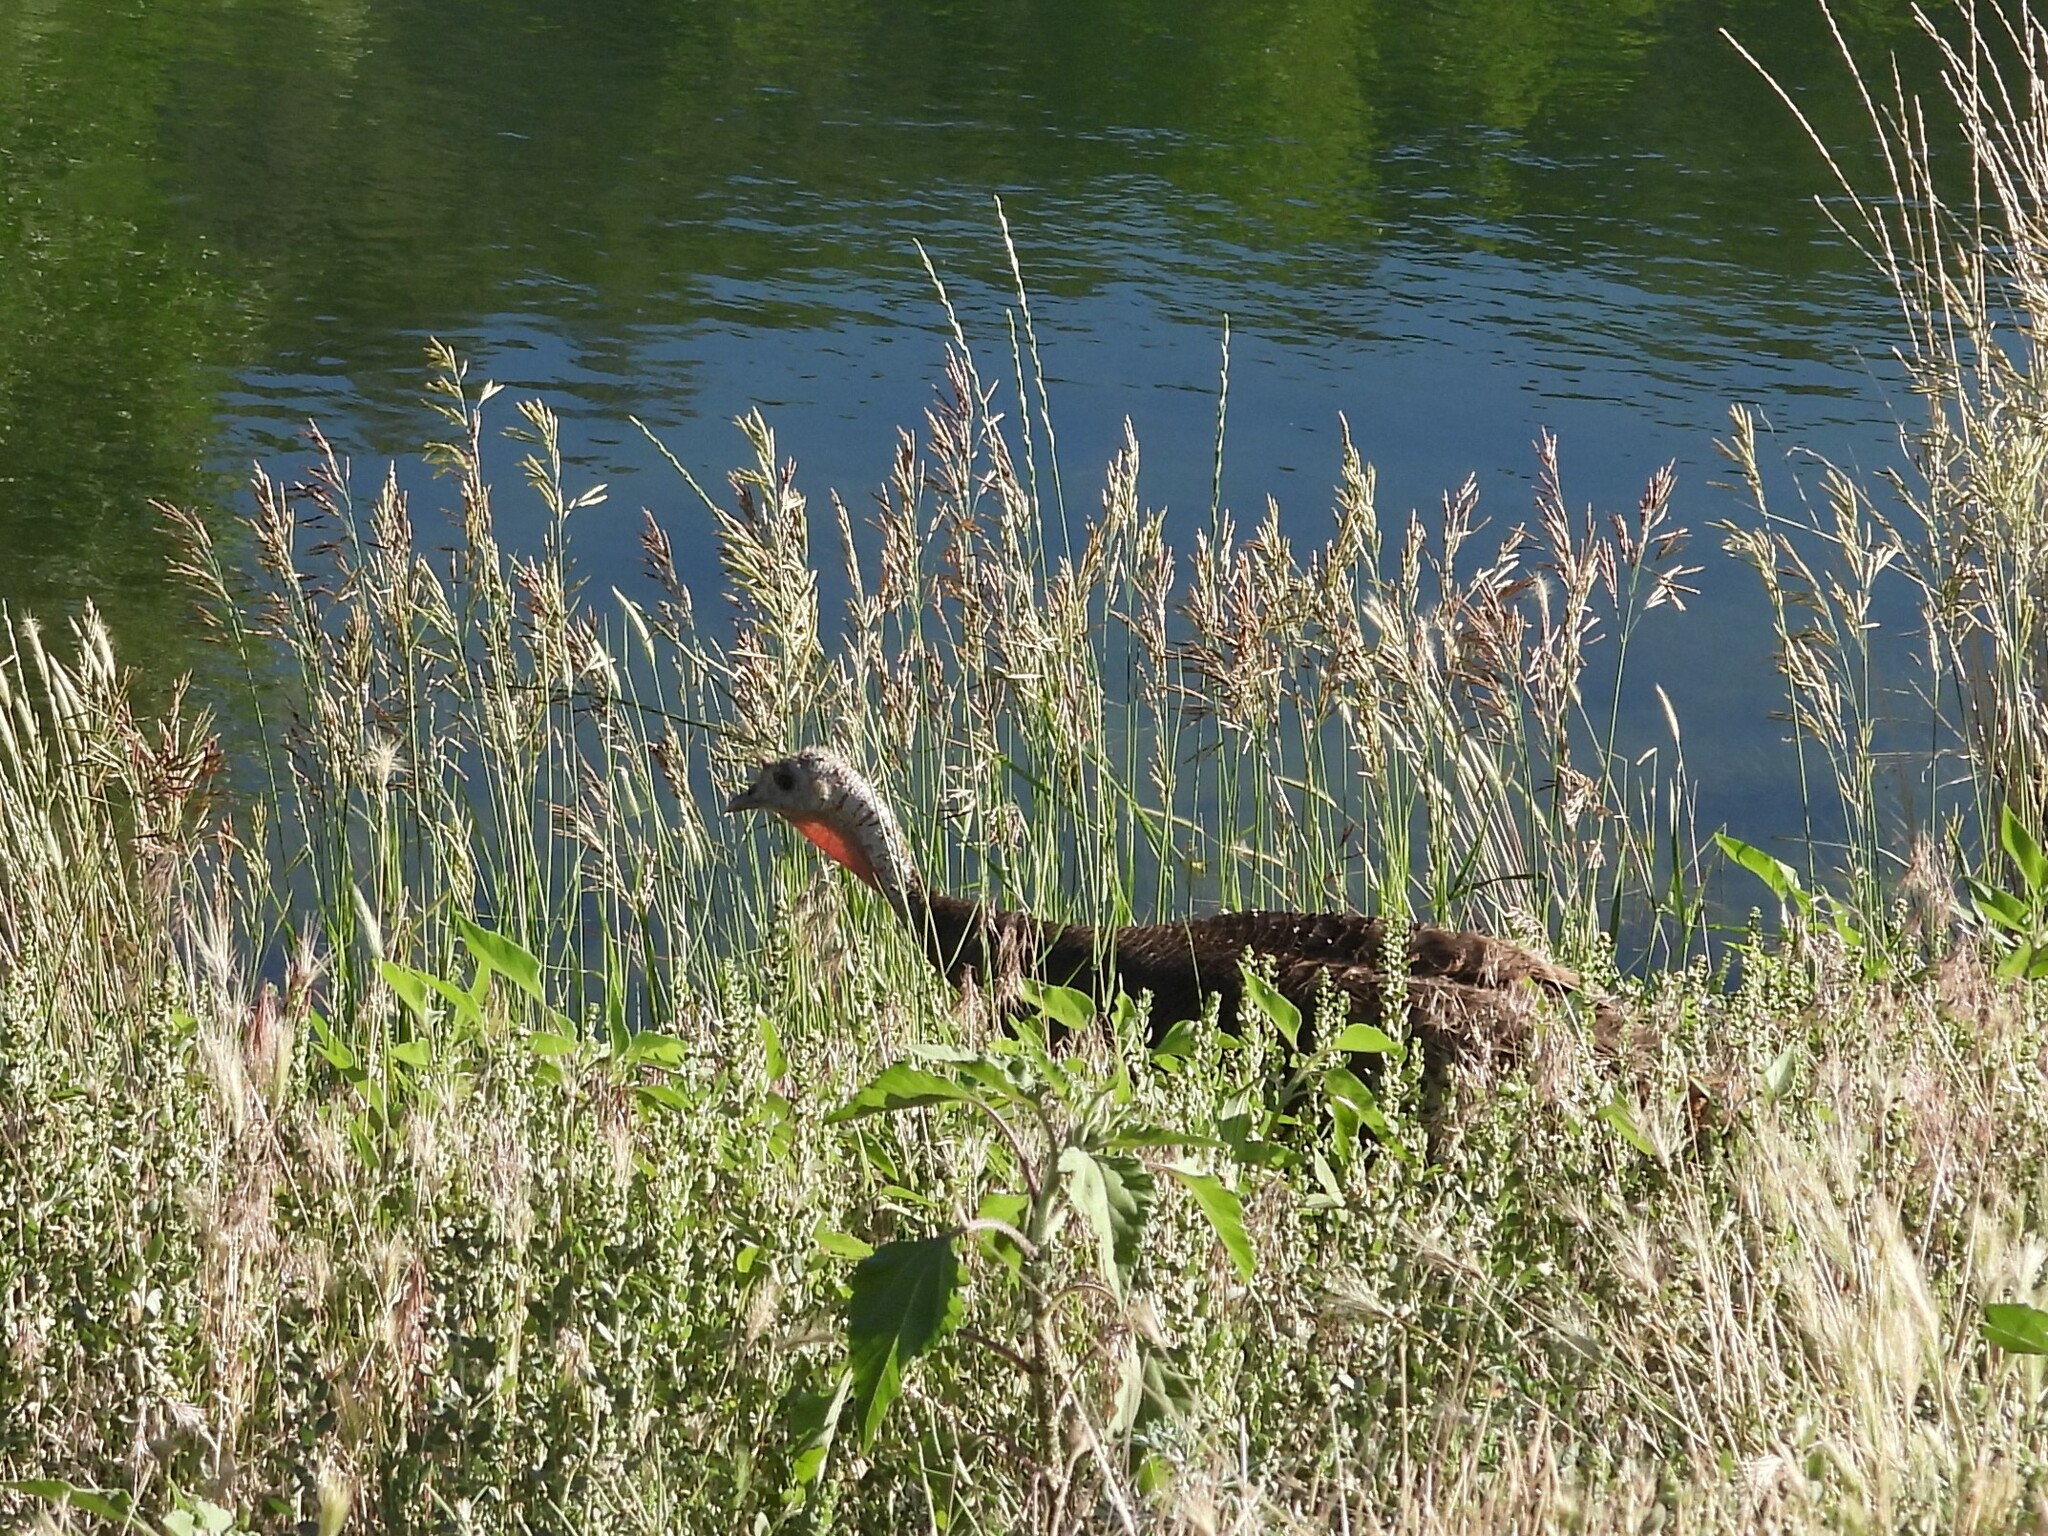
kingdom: Animalia
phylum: Chordata
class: Aves
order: Galliformes
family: Phasianidae
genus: Meleagris
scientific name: Meleagris gallopavo
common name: Wild turkey
